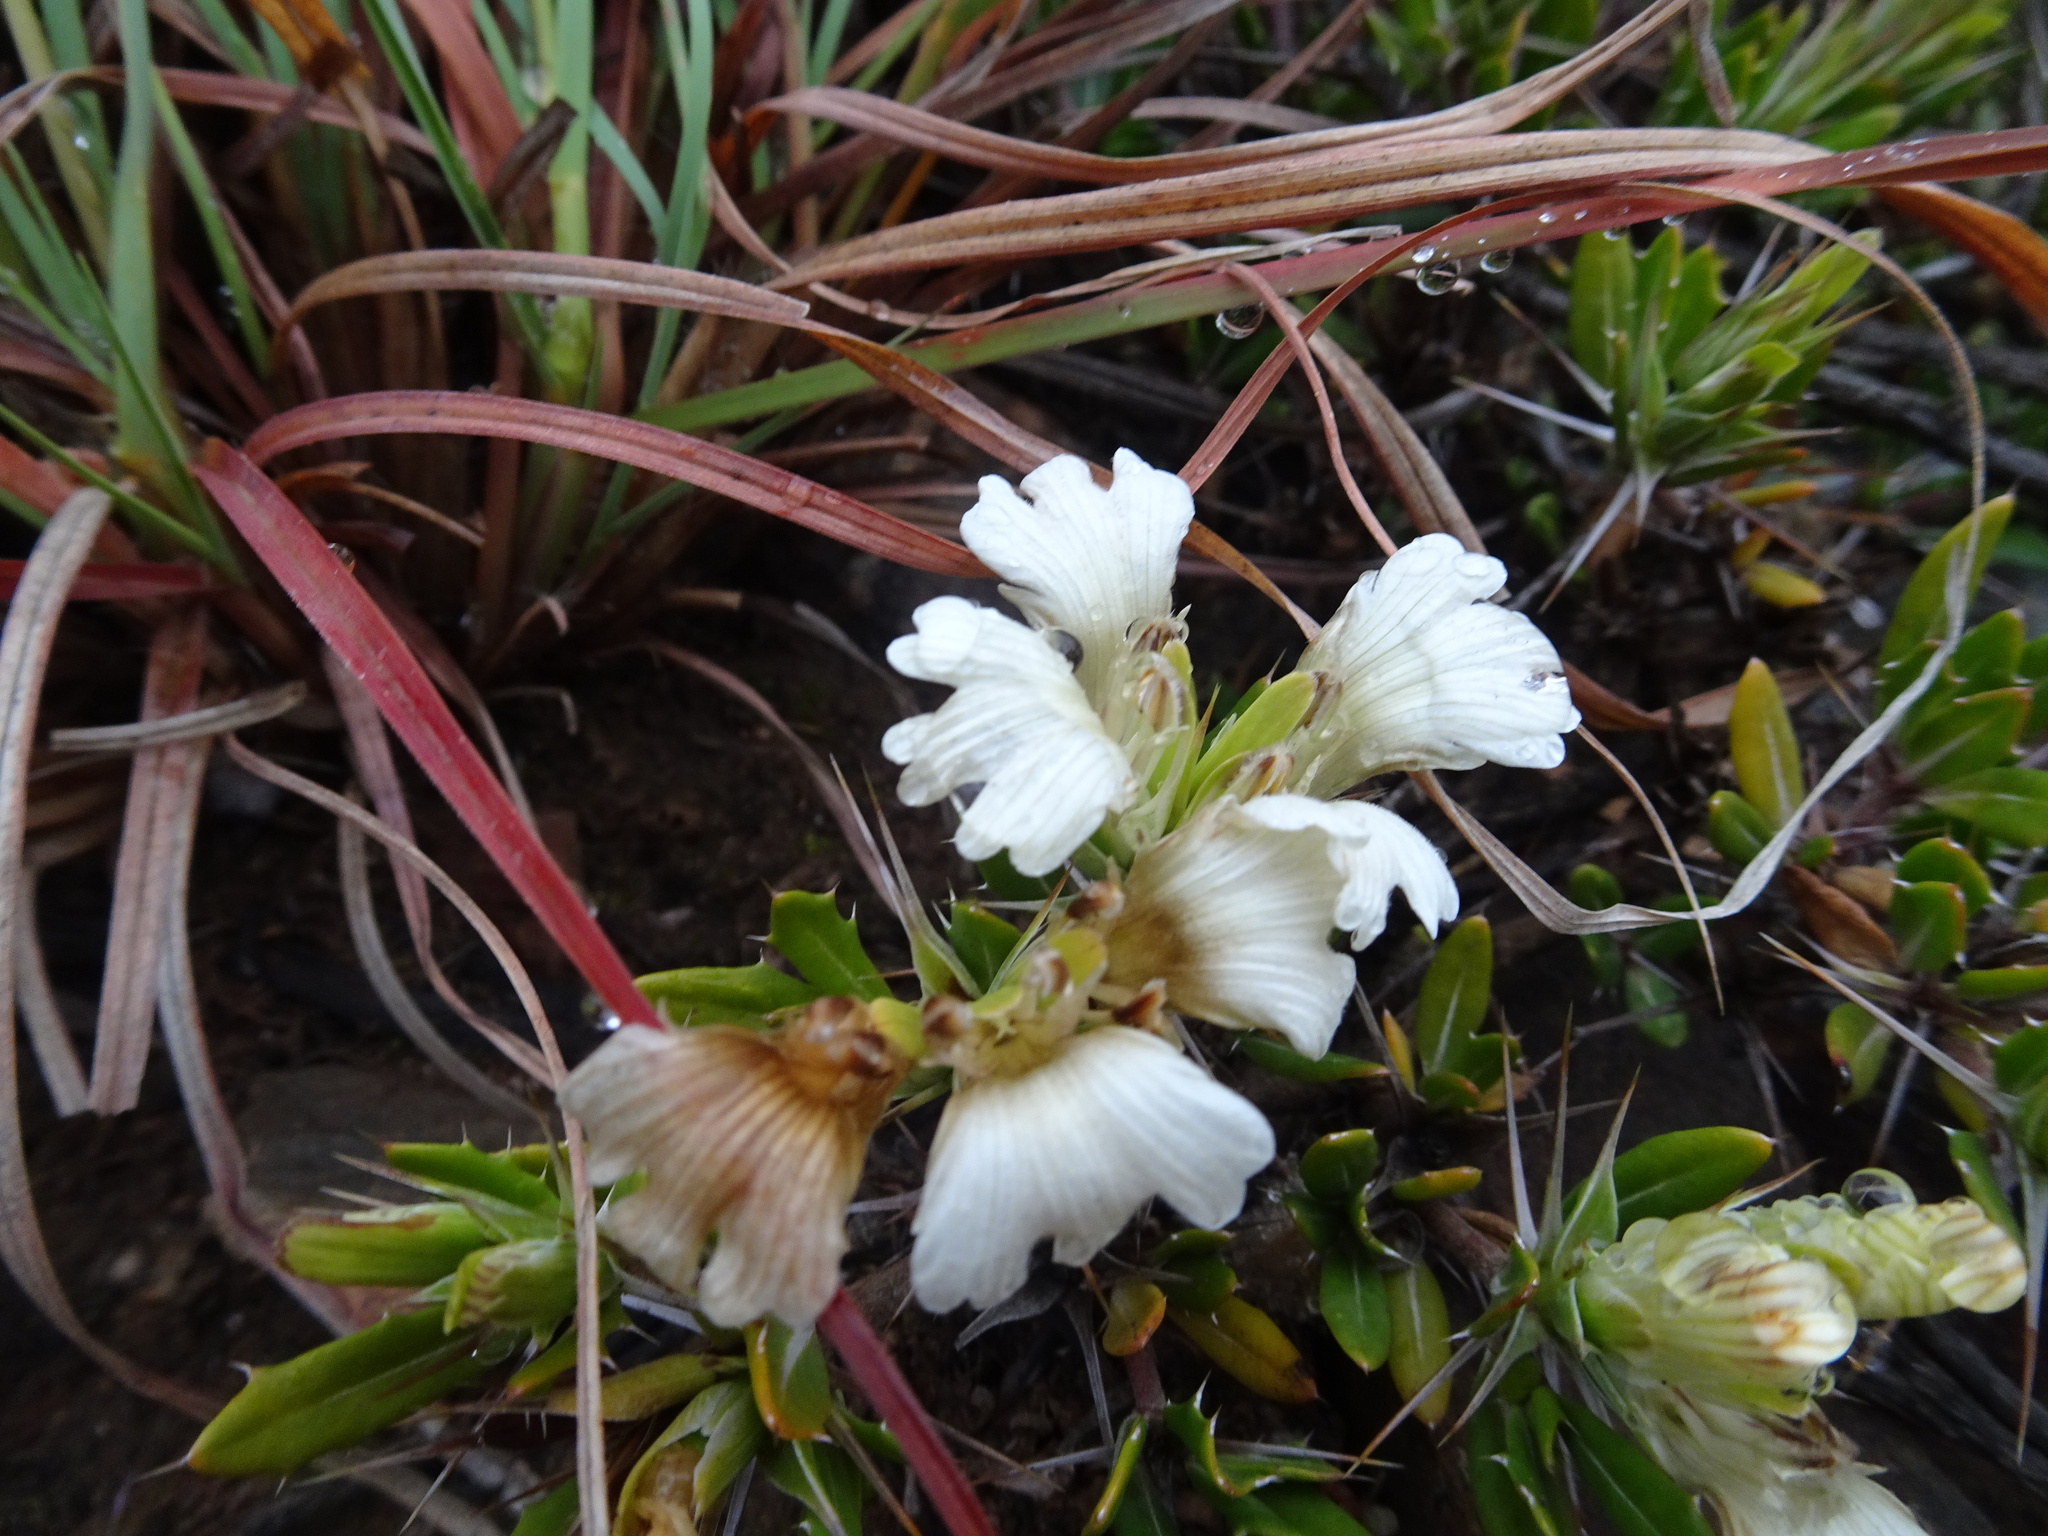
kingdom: Plantae
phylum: Tracheophyta
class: Magnoliopsida
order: Lamiales
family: Acanthaceae
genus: Blepharis
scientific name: Blepharis capensis
